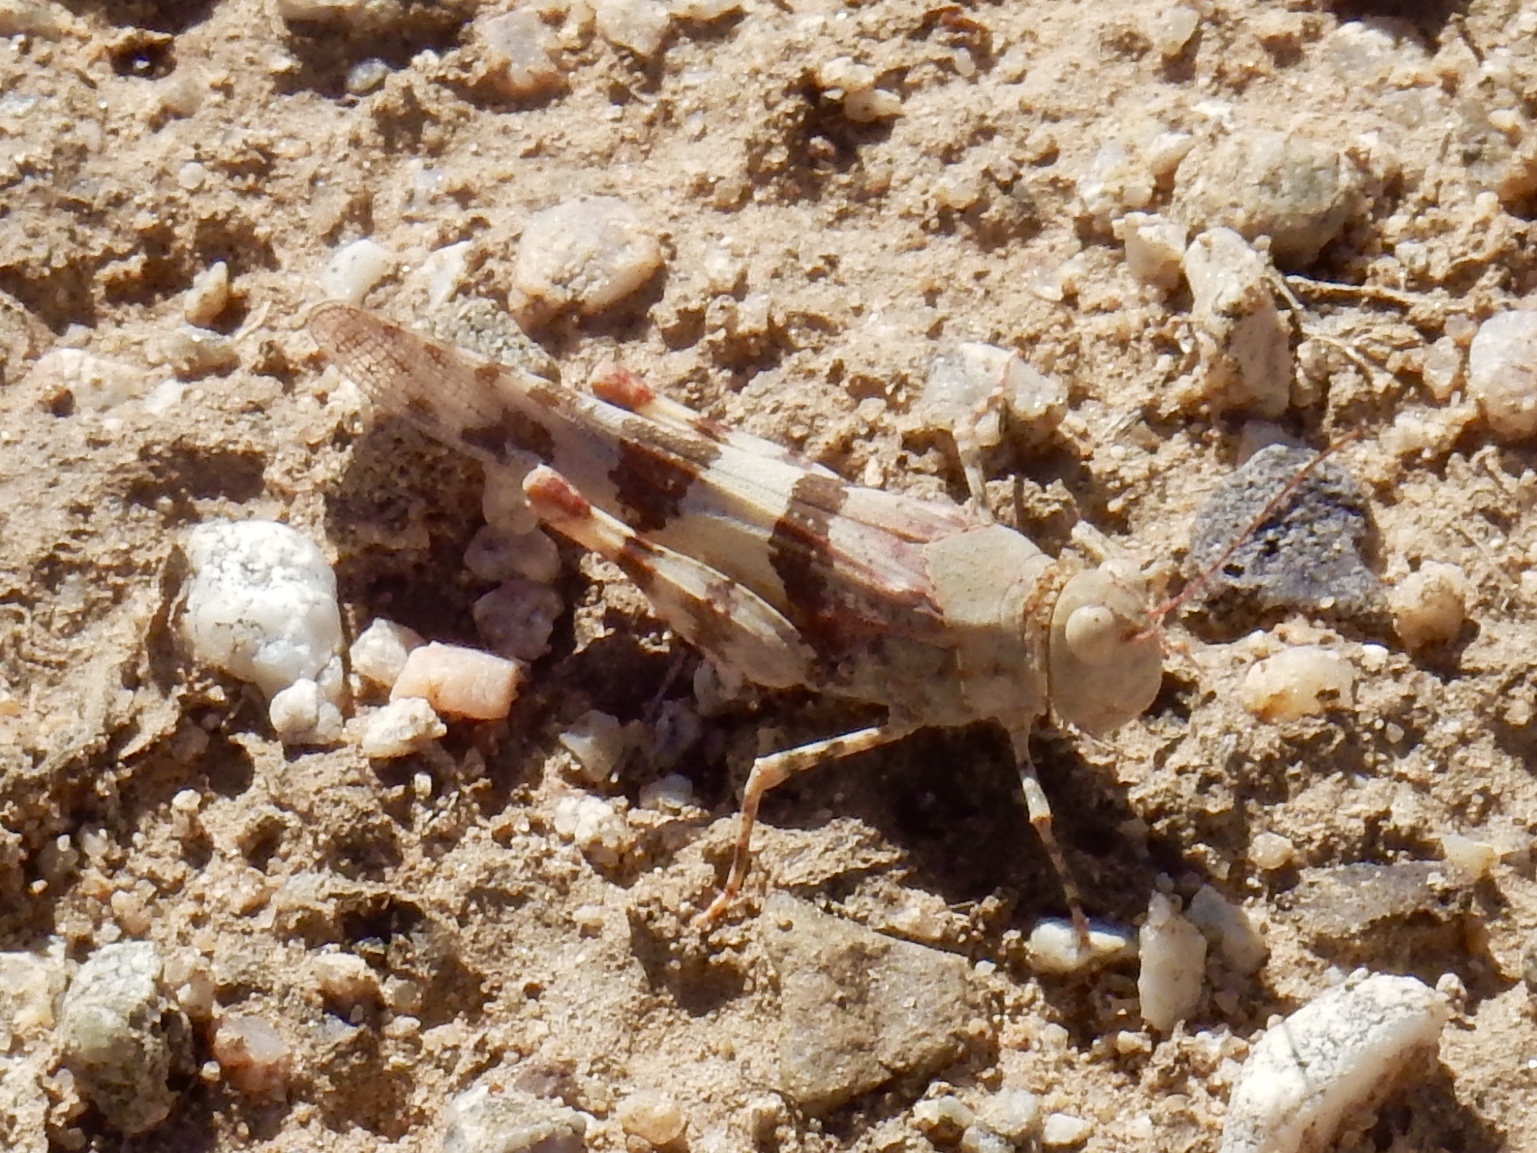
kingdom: Animalia
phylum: Arthropoda
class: Insecta
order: Orthoptera
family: Acrididae
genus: Trimerotropis
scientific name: Trimerotropis pallidipennis
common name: Pallid-winged grasshopper
